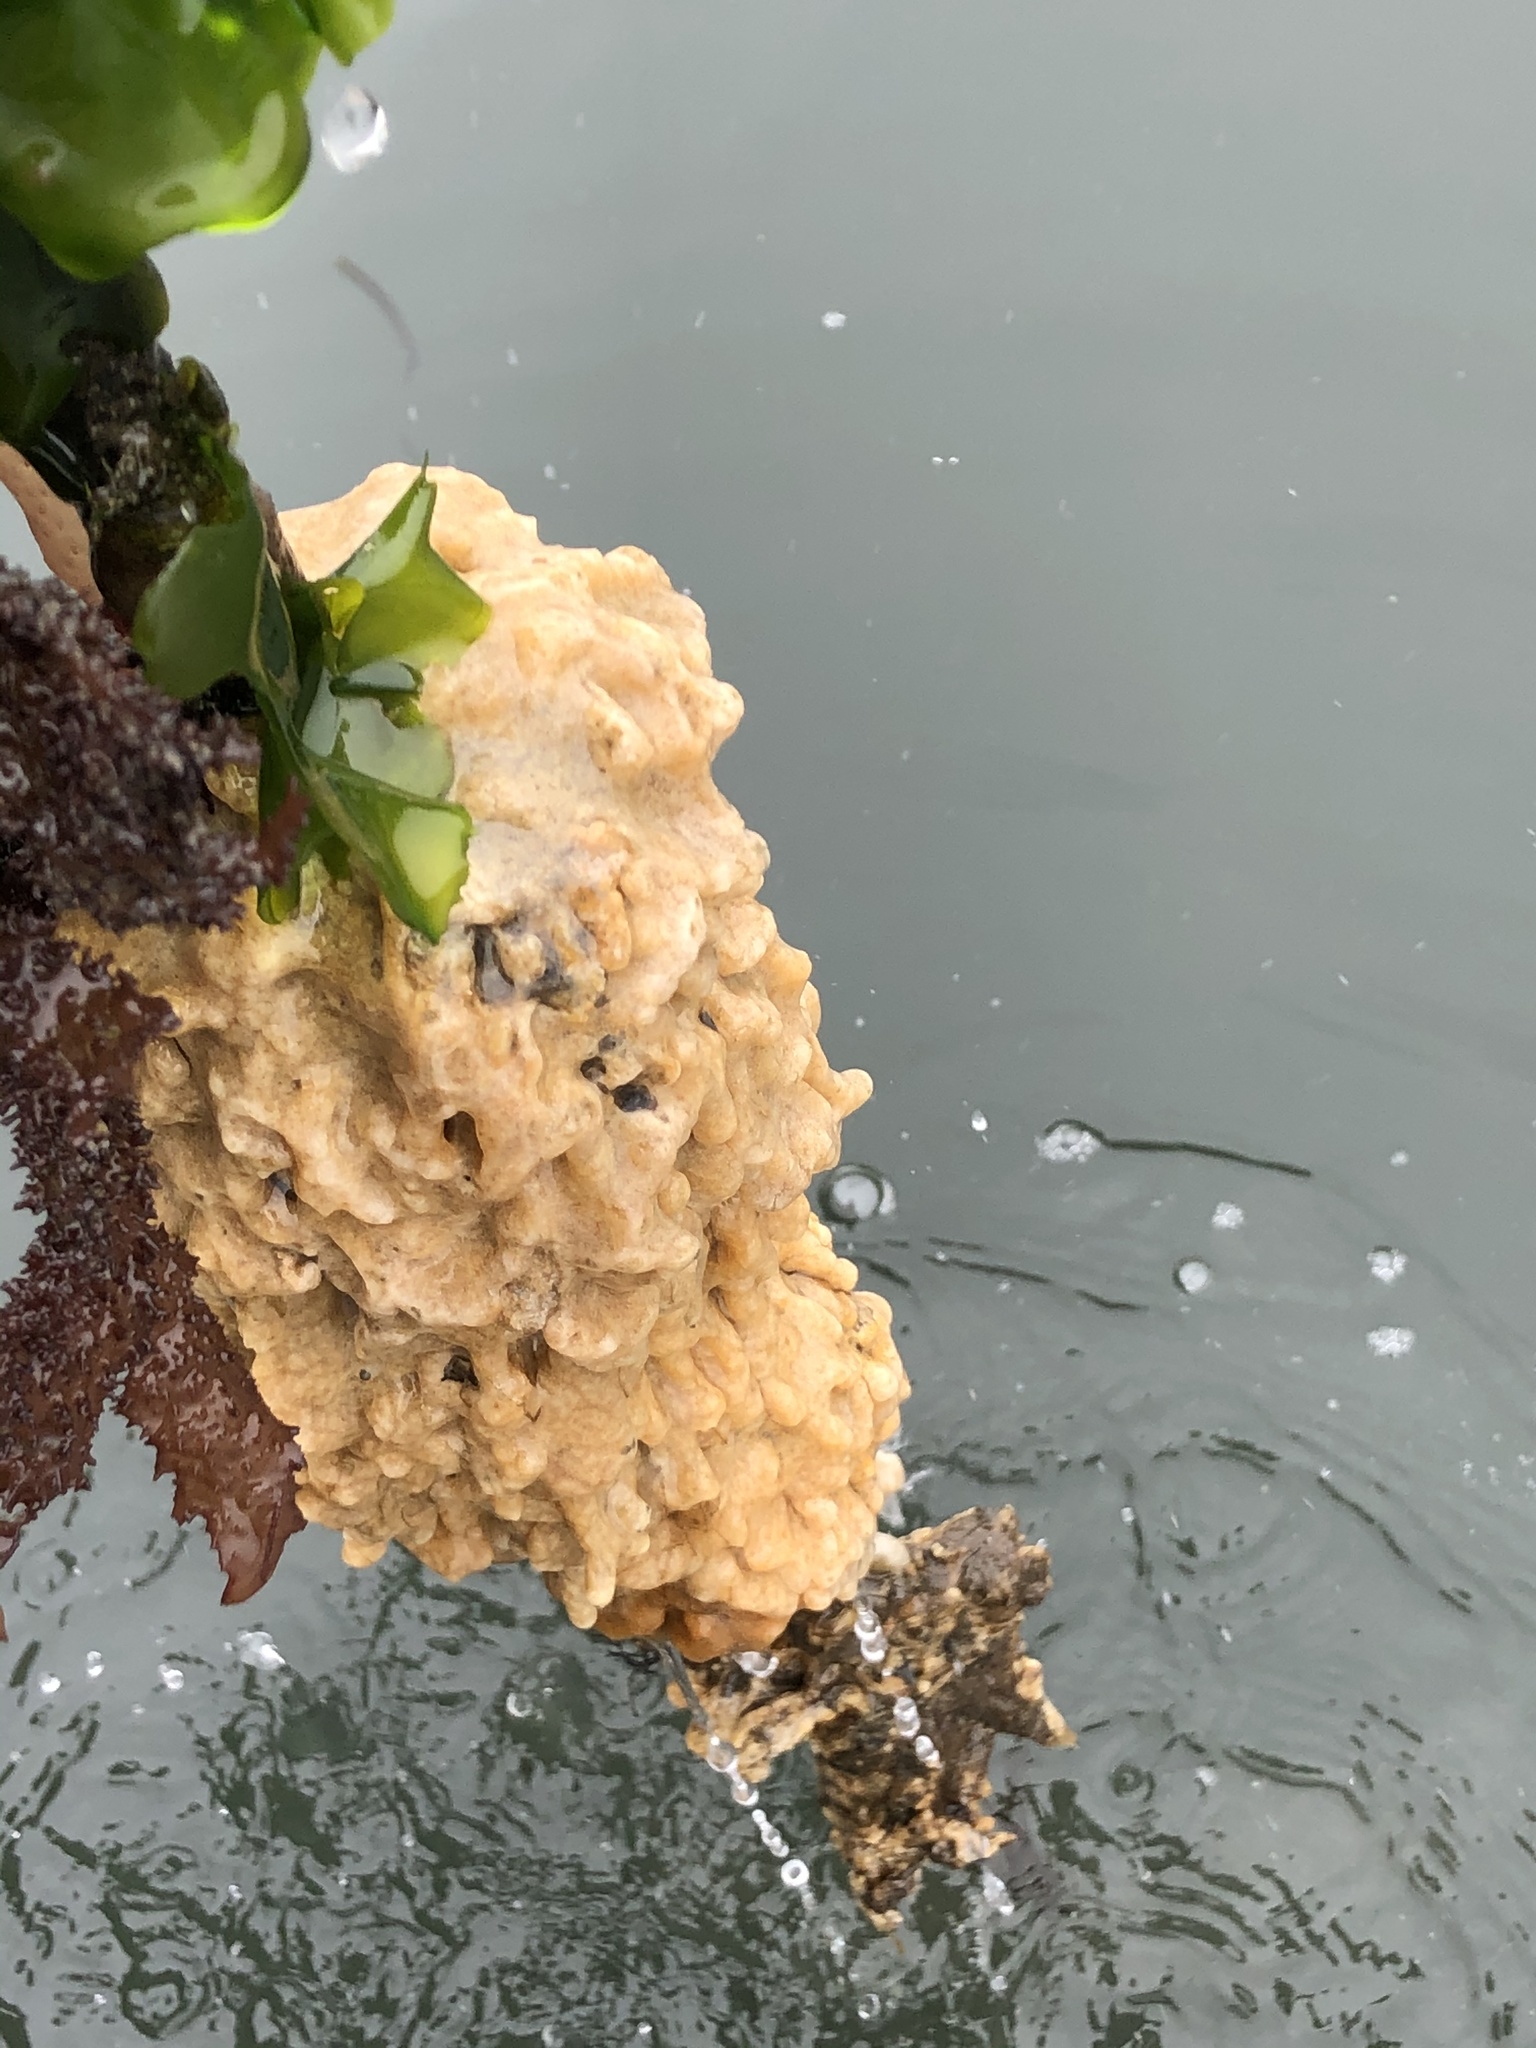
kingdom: Animalia
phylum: Chordata
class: Ascidiacea
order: Aplousobranchia
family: Didemnidae
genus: Didemnum
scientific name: Didemnum vexillum
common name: Compound sea squirt
